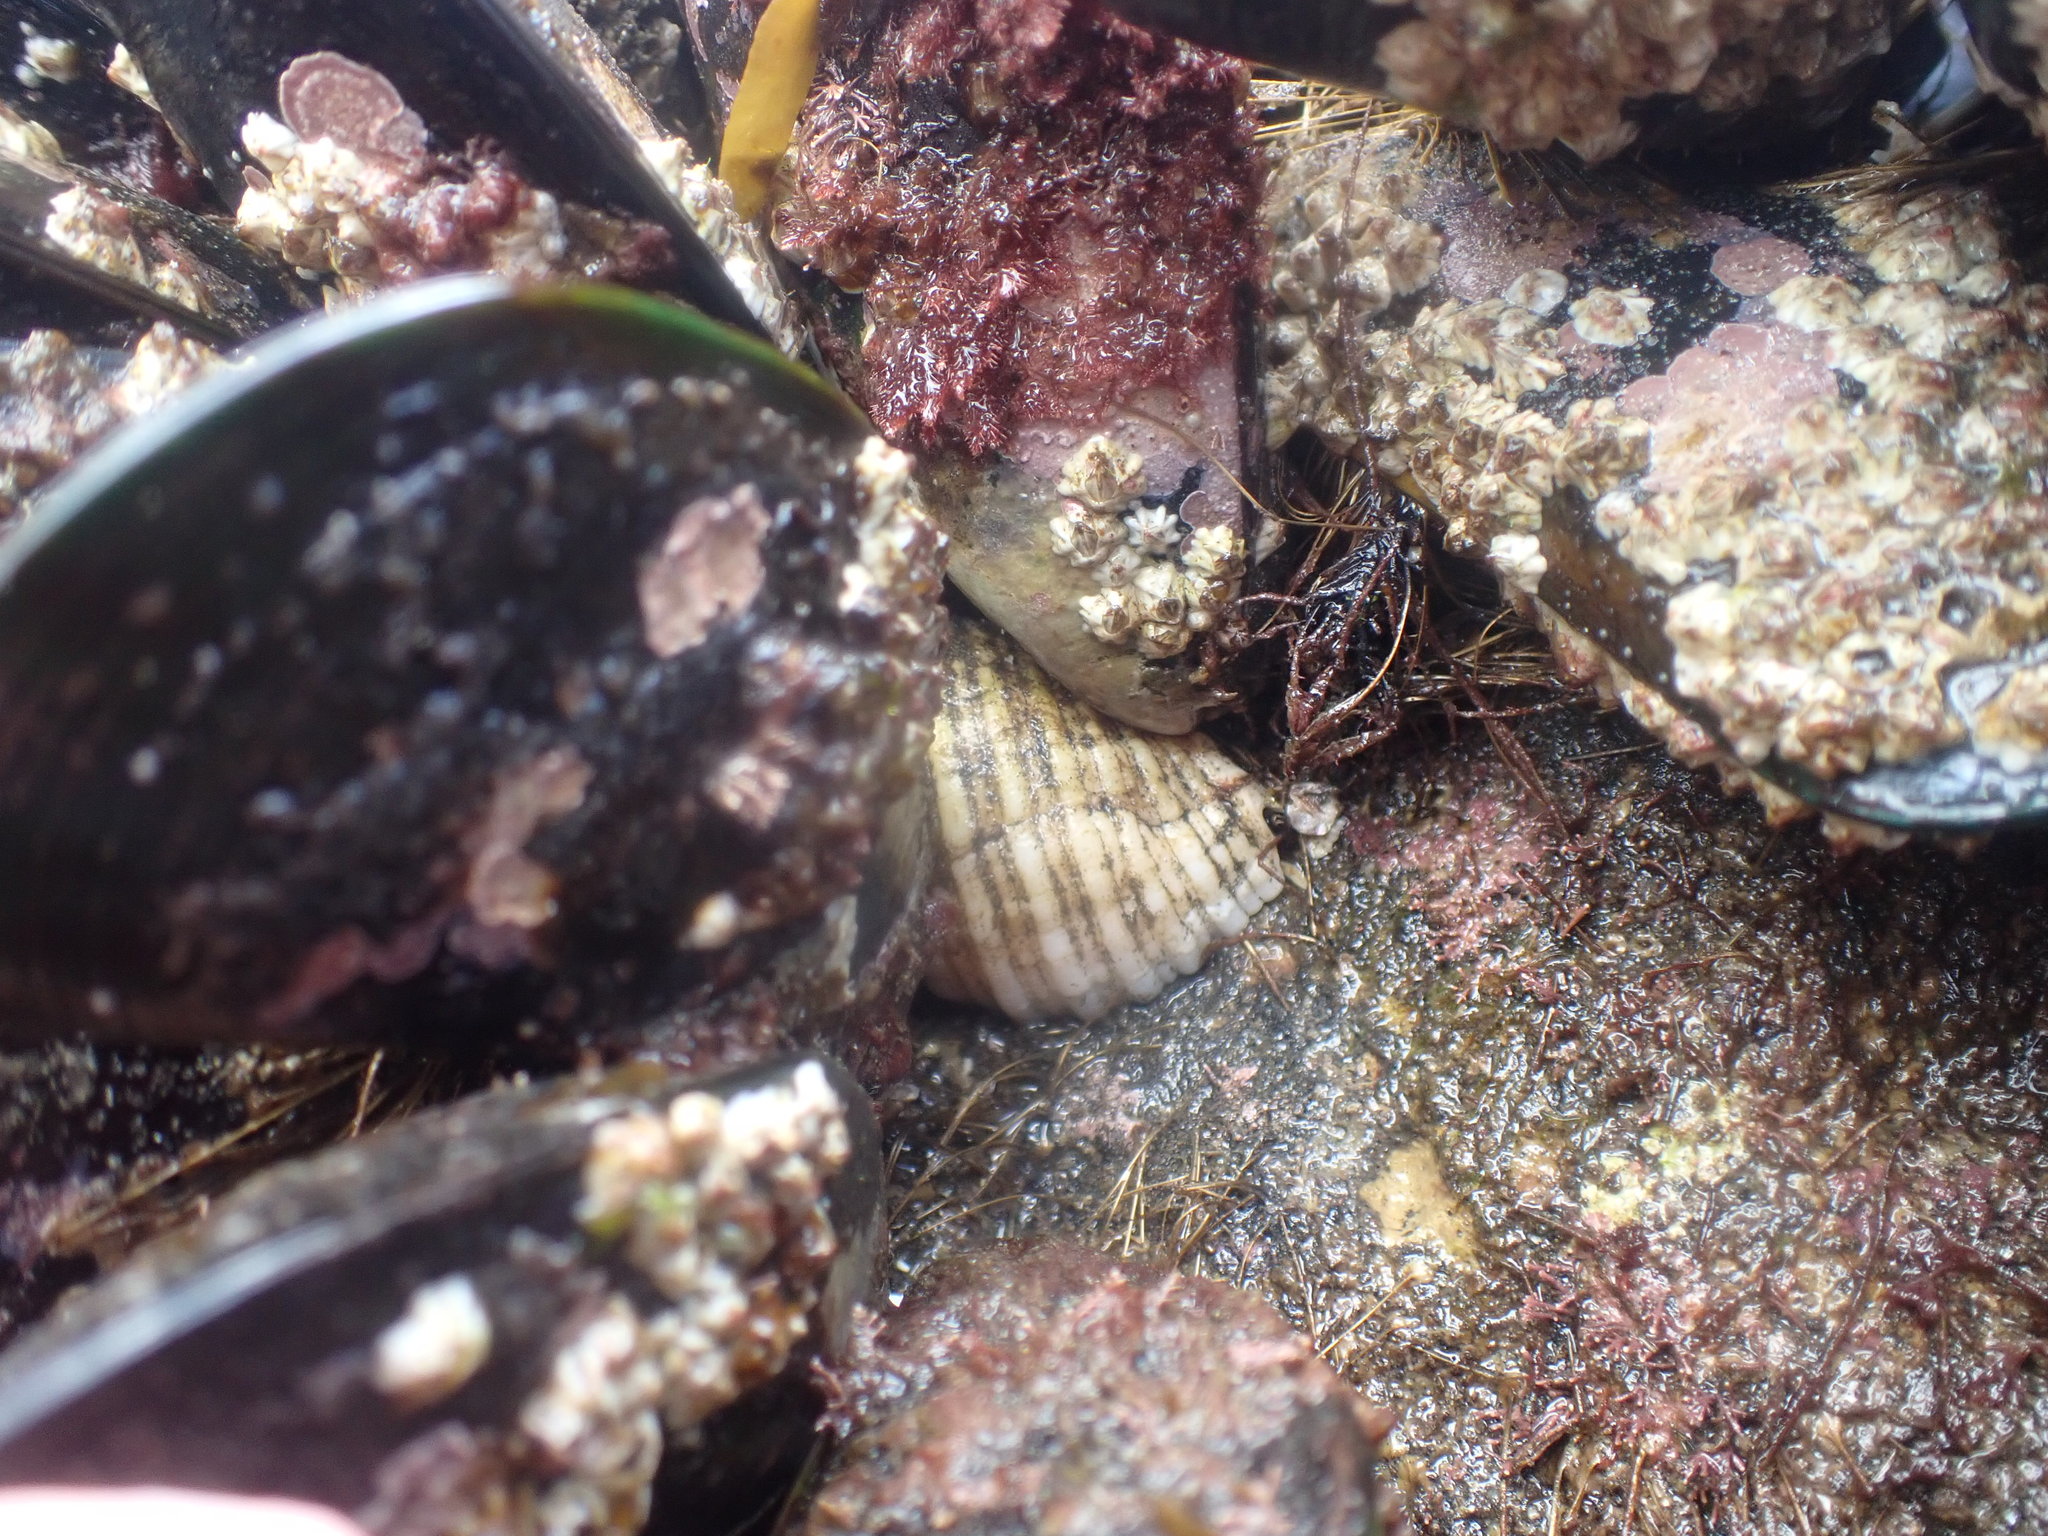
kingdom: Animalia
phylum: Mollusca
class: Gastropoda
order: Neogastropoda
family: Muricidae
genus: Dicathais
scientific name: Dicathais orbita
